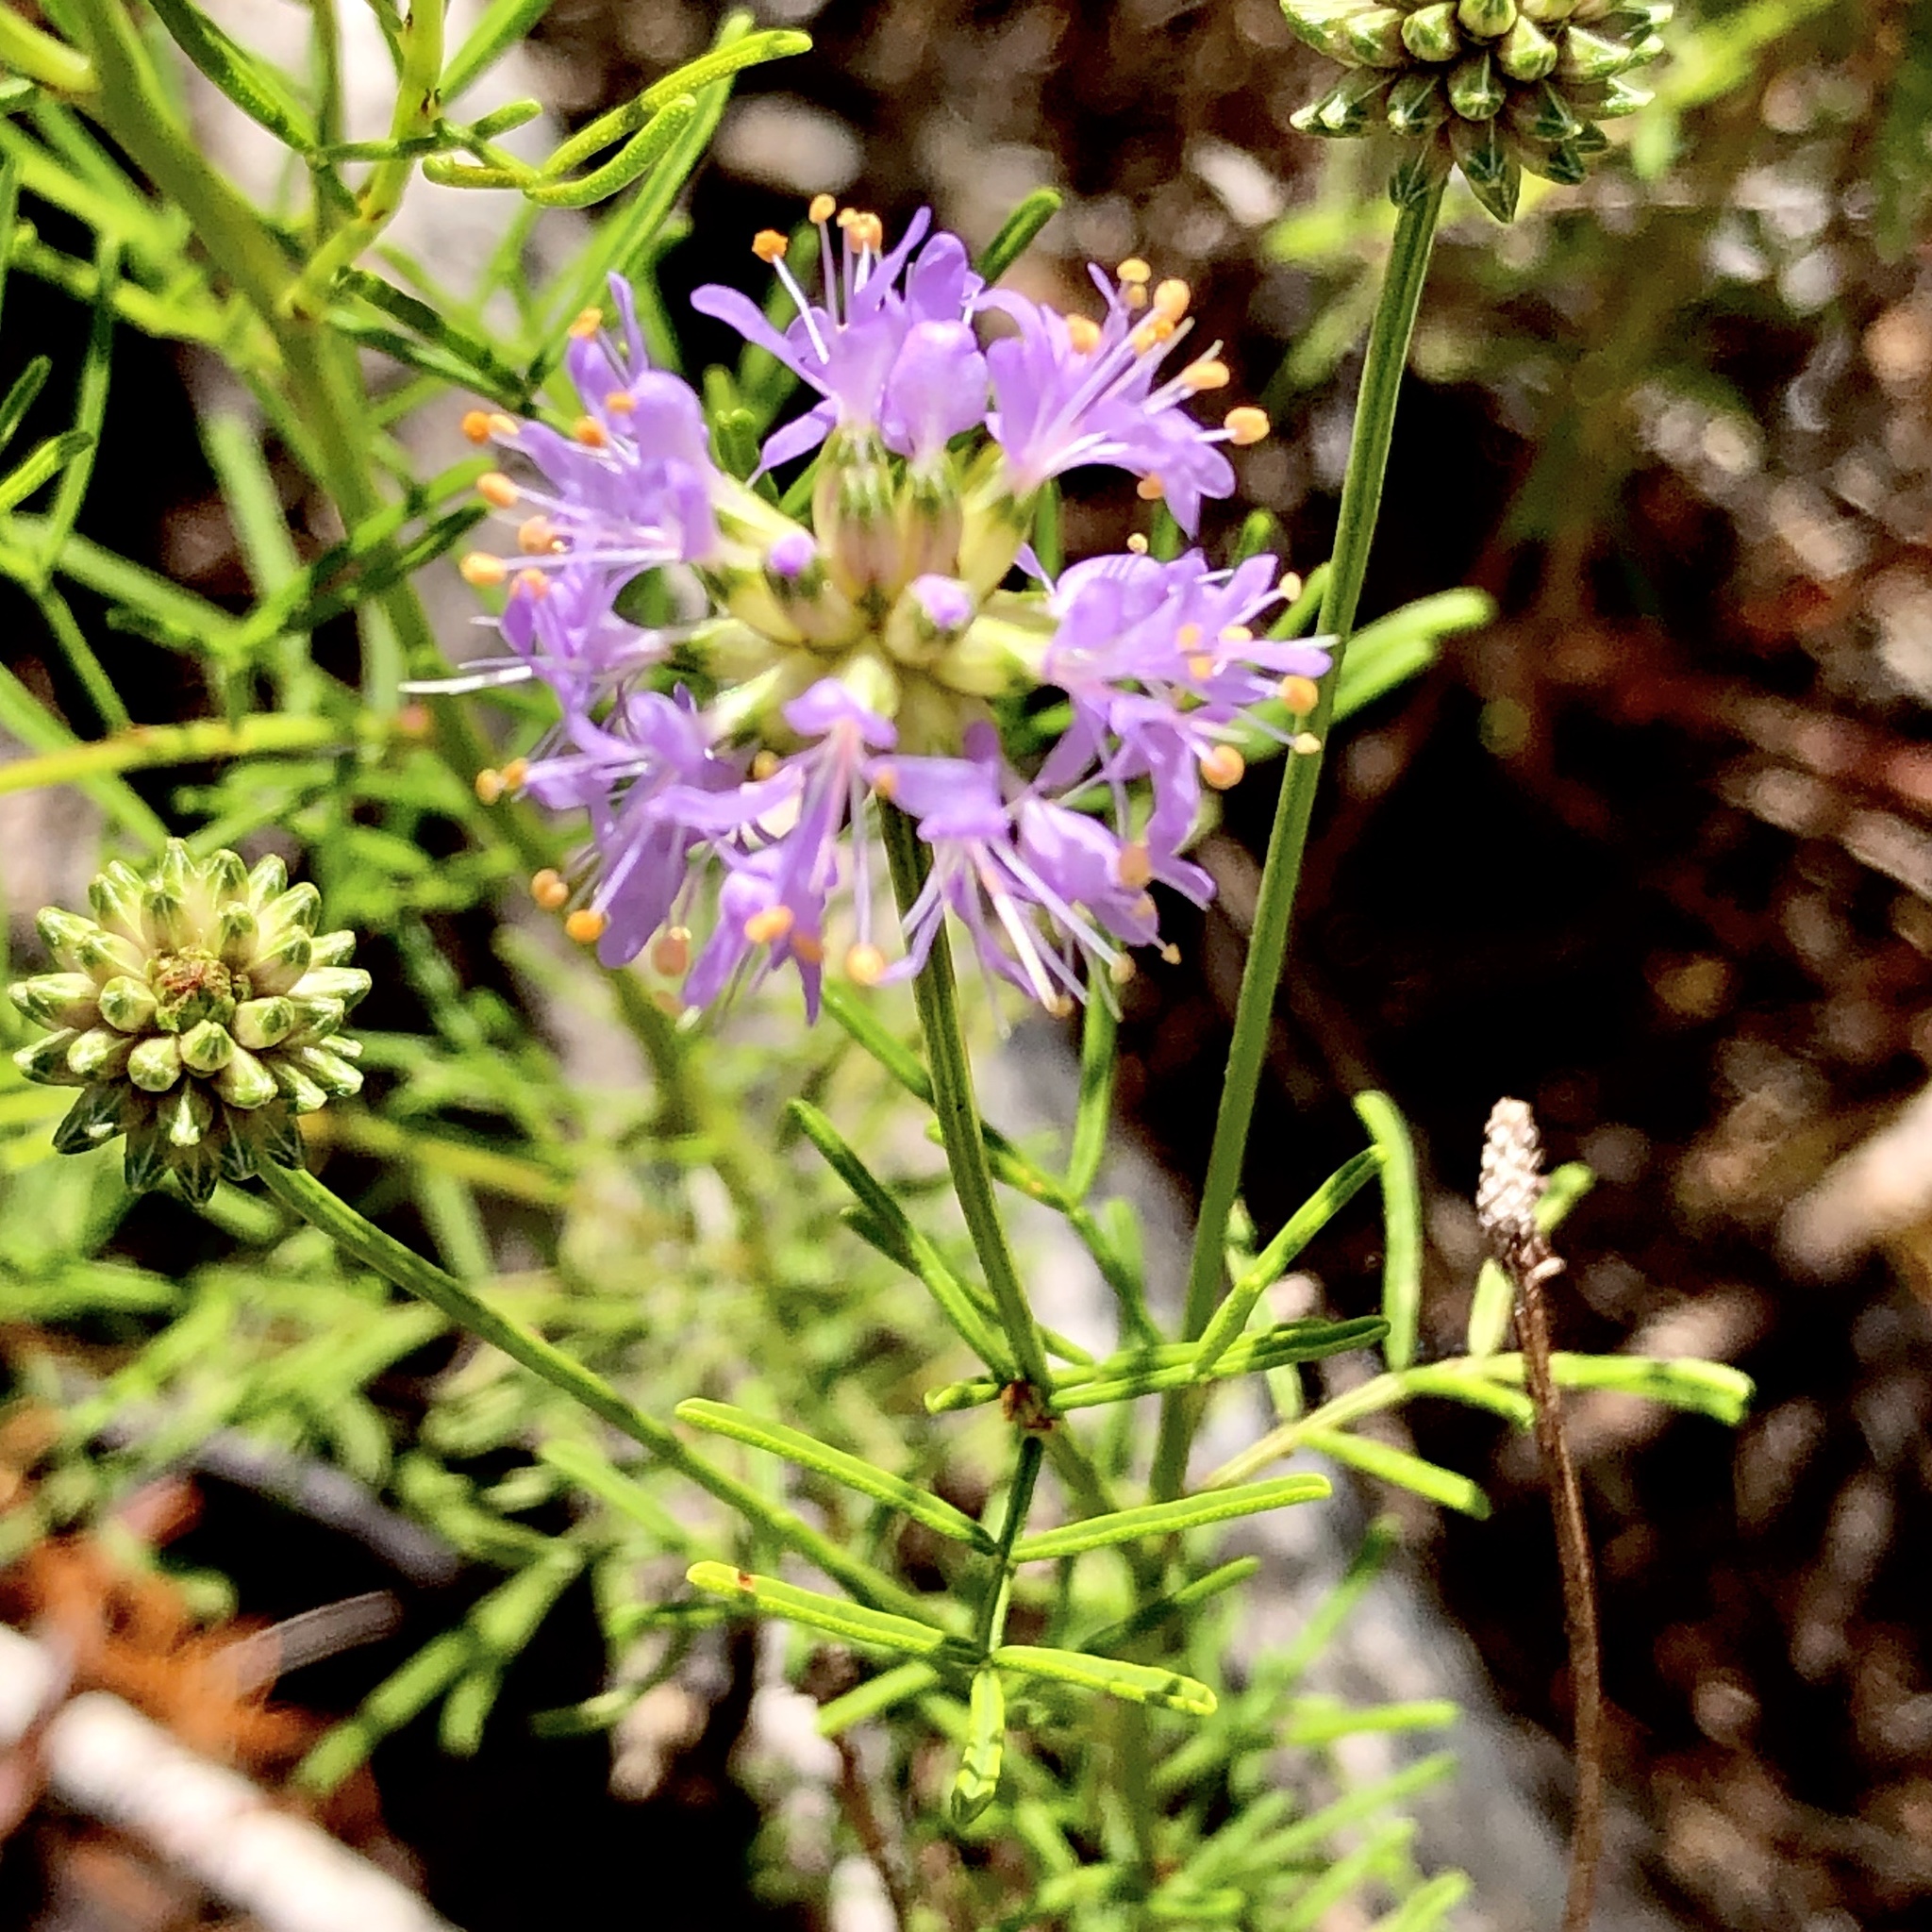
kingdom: Plantae
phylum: Tracheophyta
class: Magnoliopsida
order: Fabales
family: Fabaceae
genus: Dalea
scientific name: Dalea feayi
